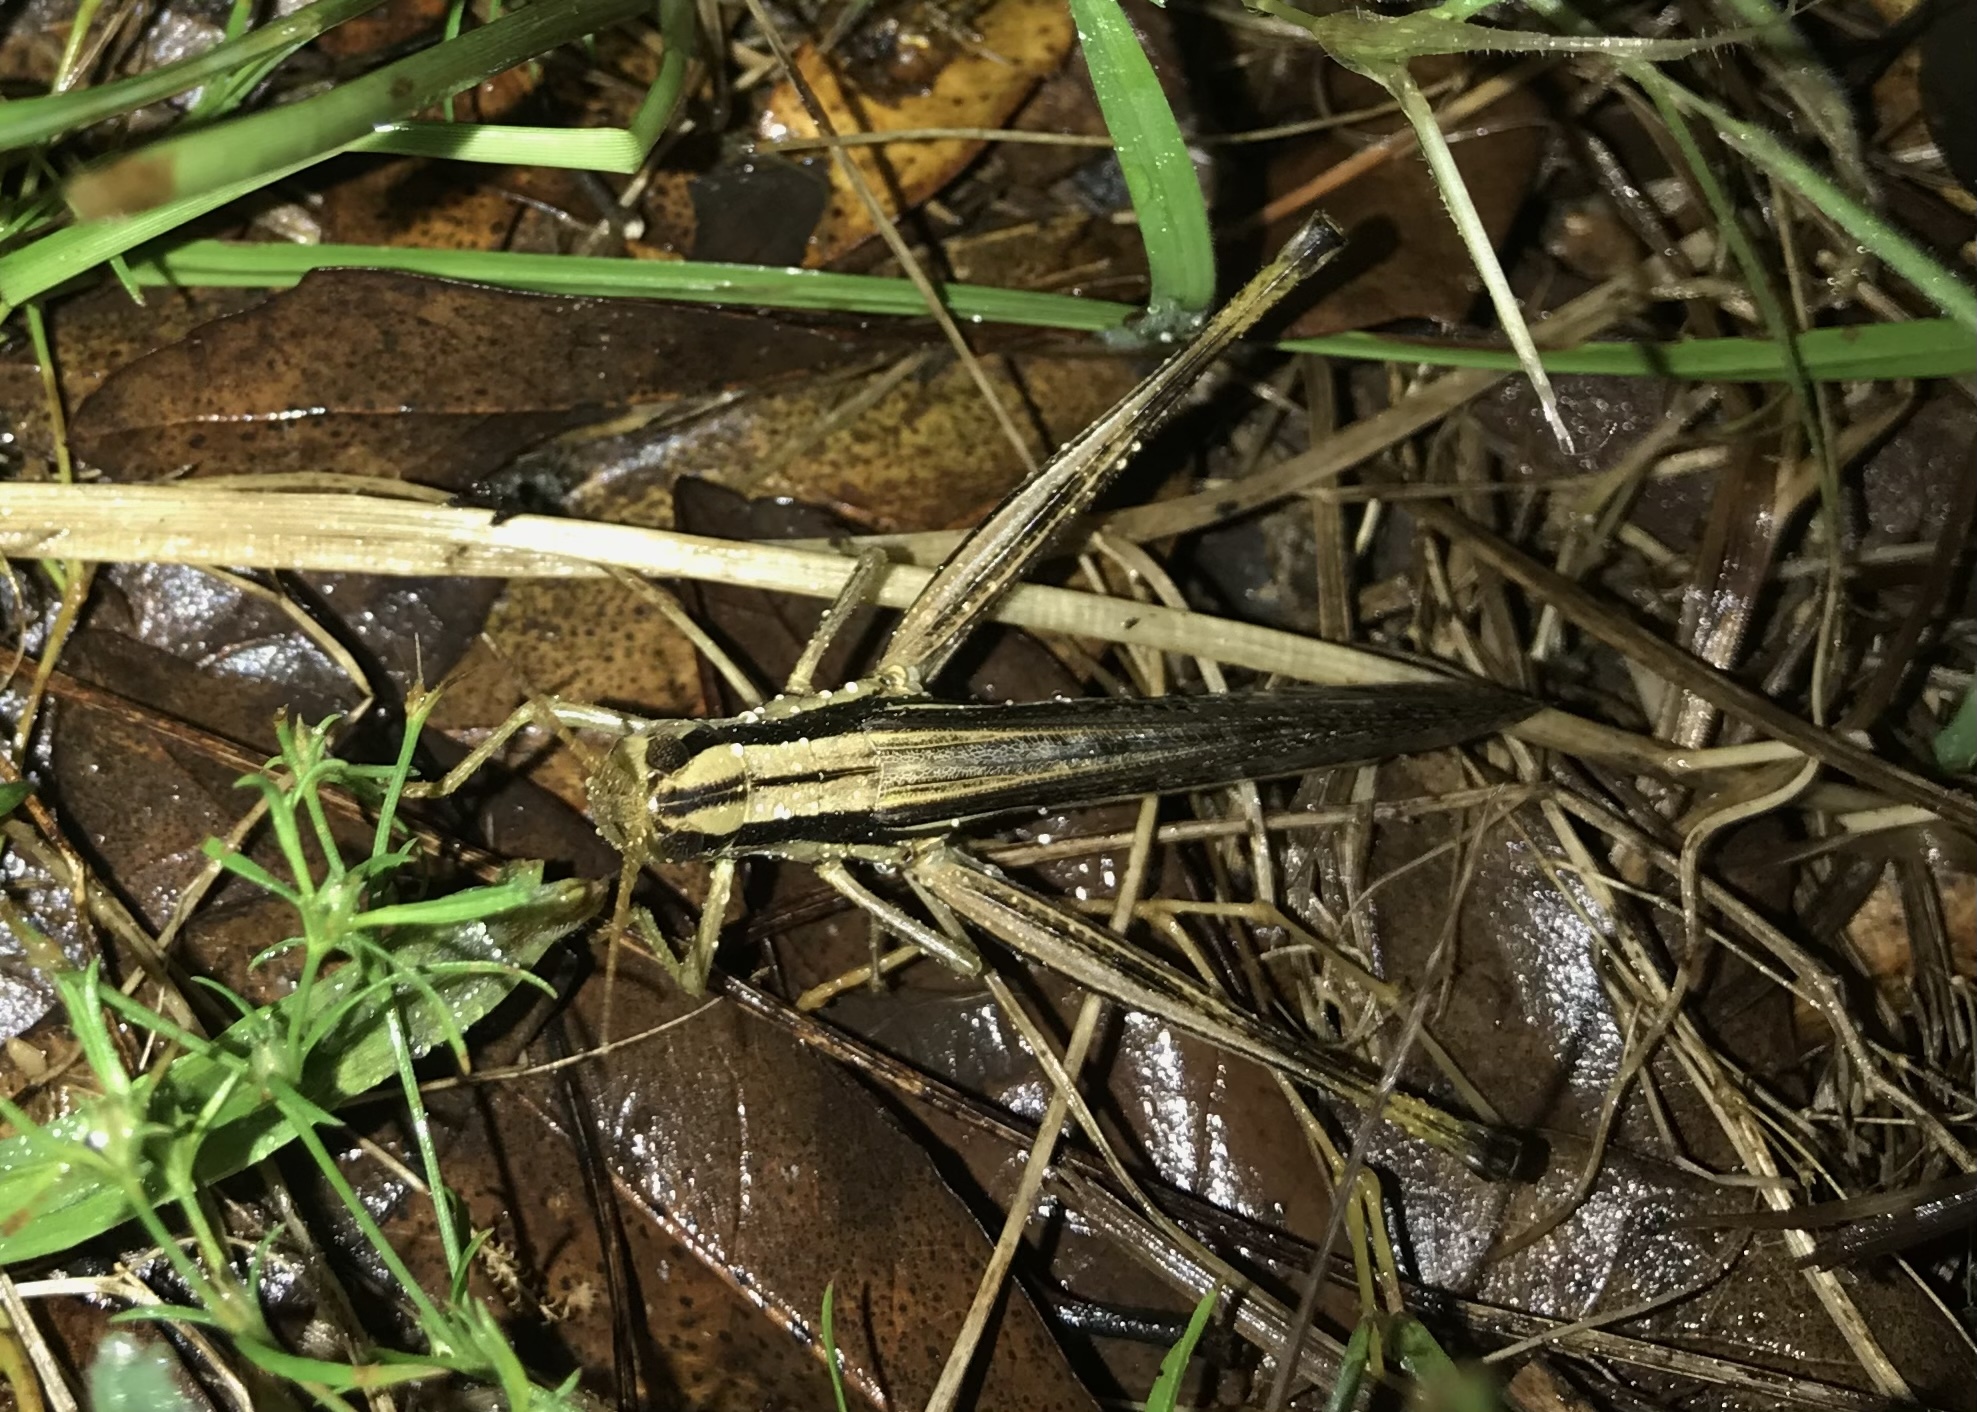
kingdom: Animalia
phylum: Arthropoda
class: Insecta
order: Orthoptera
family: Acrididae
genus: Mermiria
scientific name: Mermiria bivittata
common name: Two-striped mermiria grasshopper
